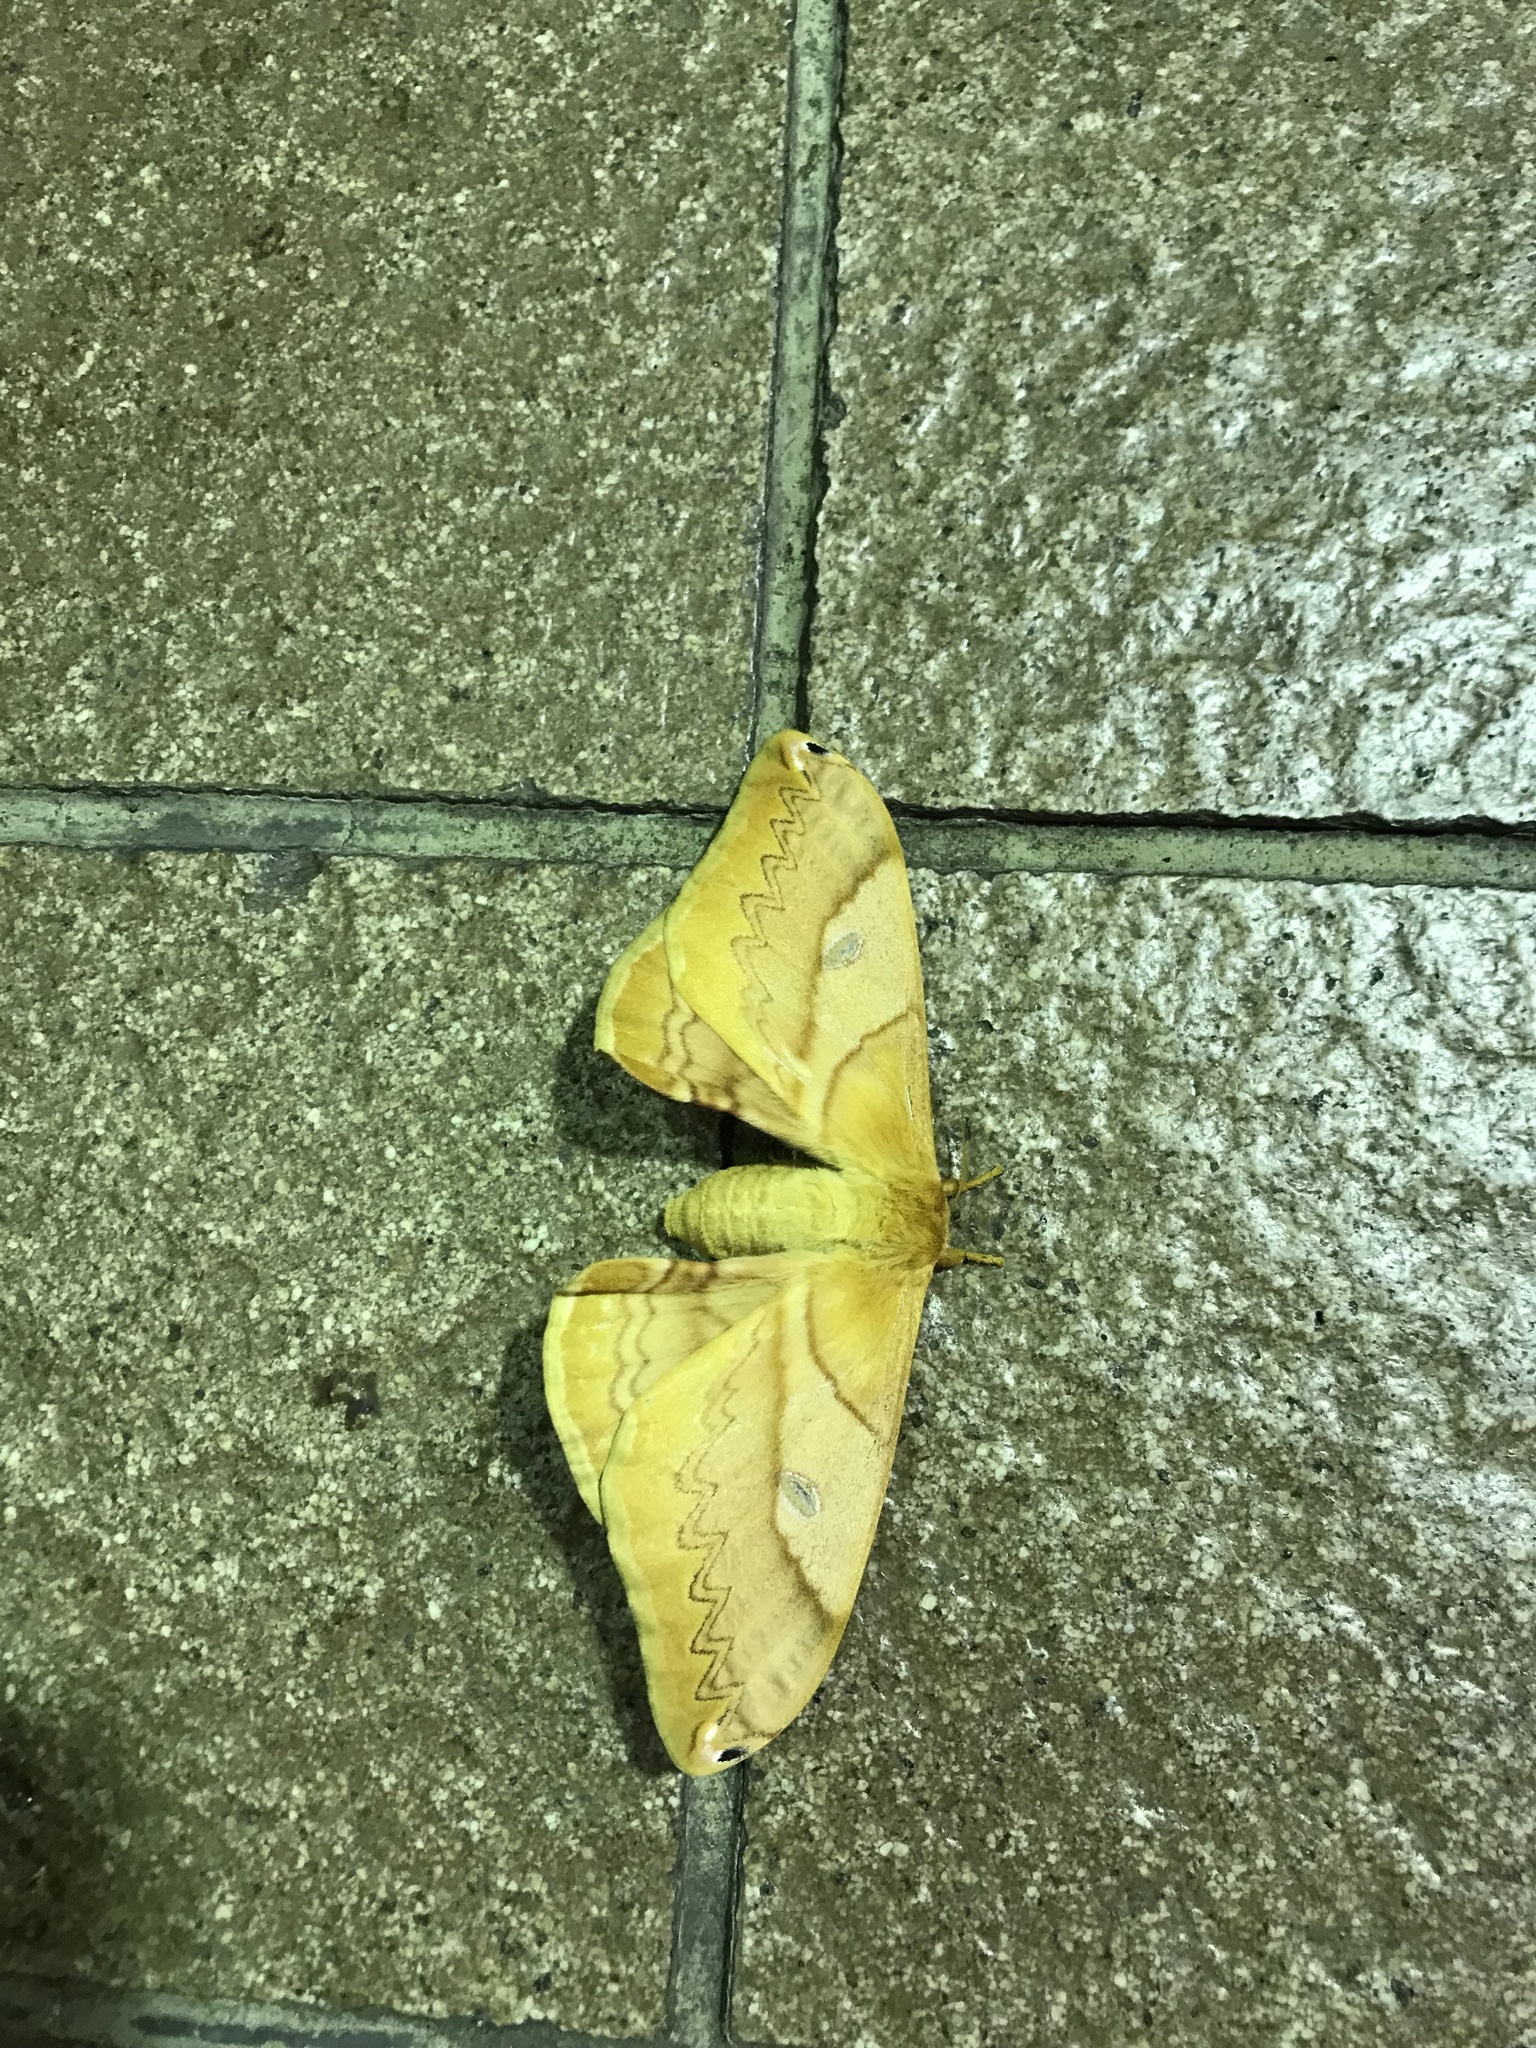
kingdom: Animalia
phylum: Arthropoda
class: Insecta
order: Lepidoptera
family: Saturniidae
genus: Saturnia
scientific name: Saturnia japonica
